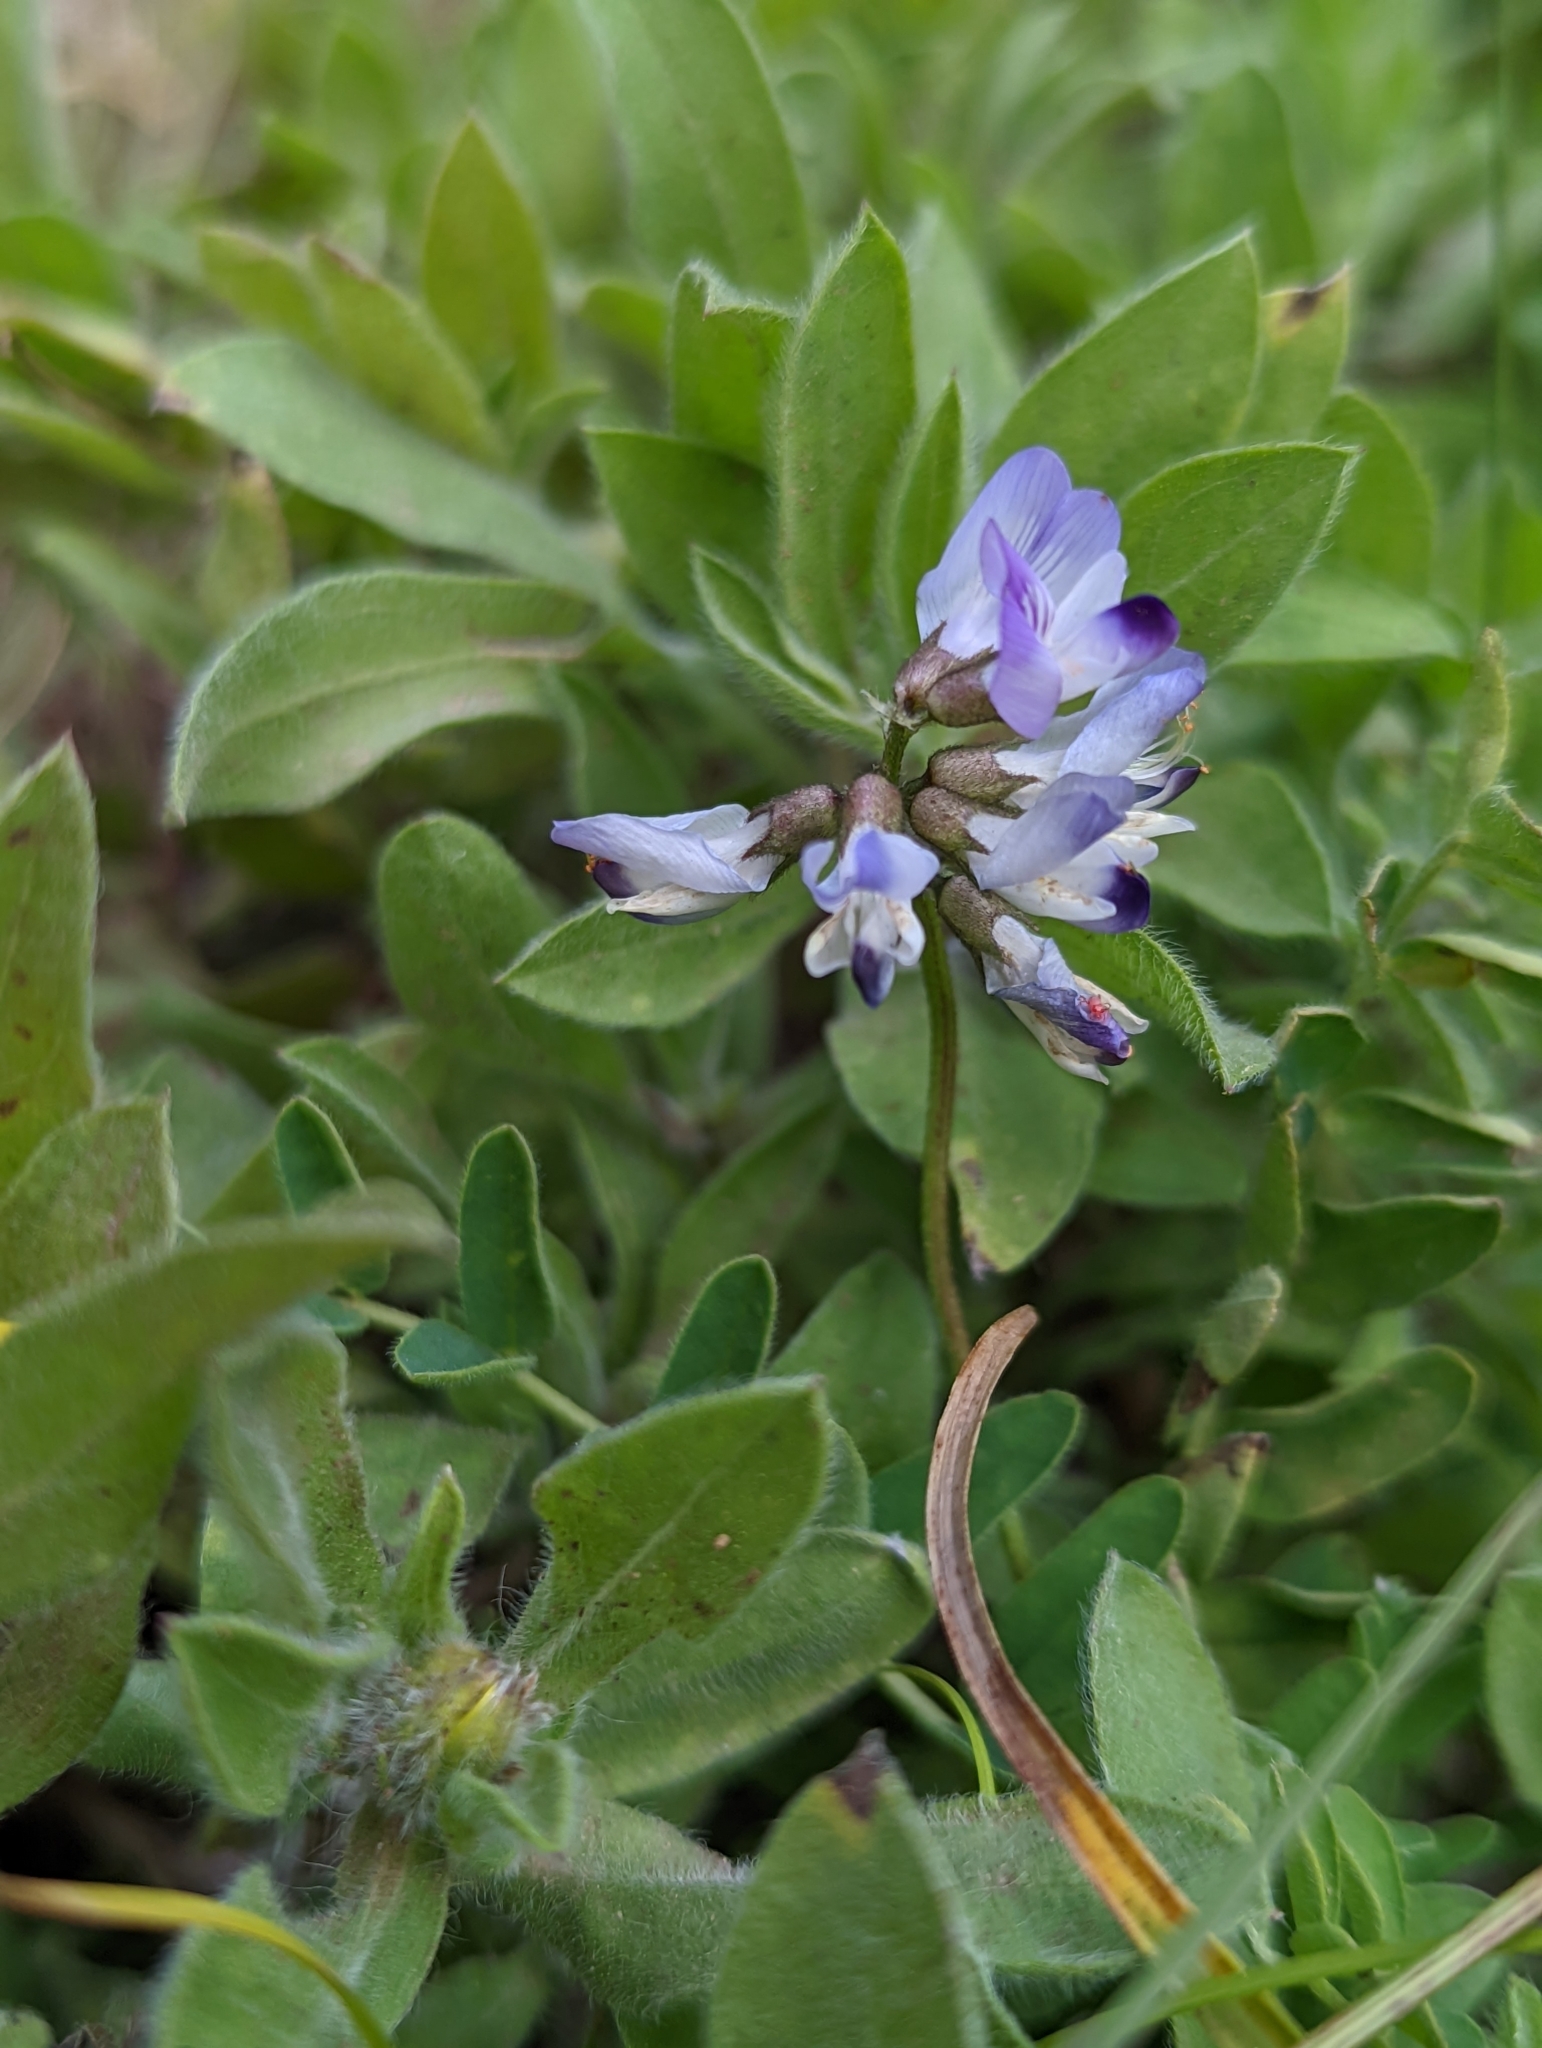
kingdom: Plantae
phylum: Tracheophyta
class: Magnoliopsida
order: Fabales
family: Fabaceae
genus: Astragalus
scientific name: Astragalus alpinus
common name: Alpine milk-vetch
